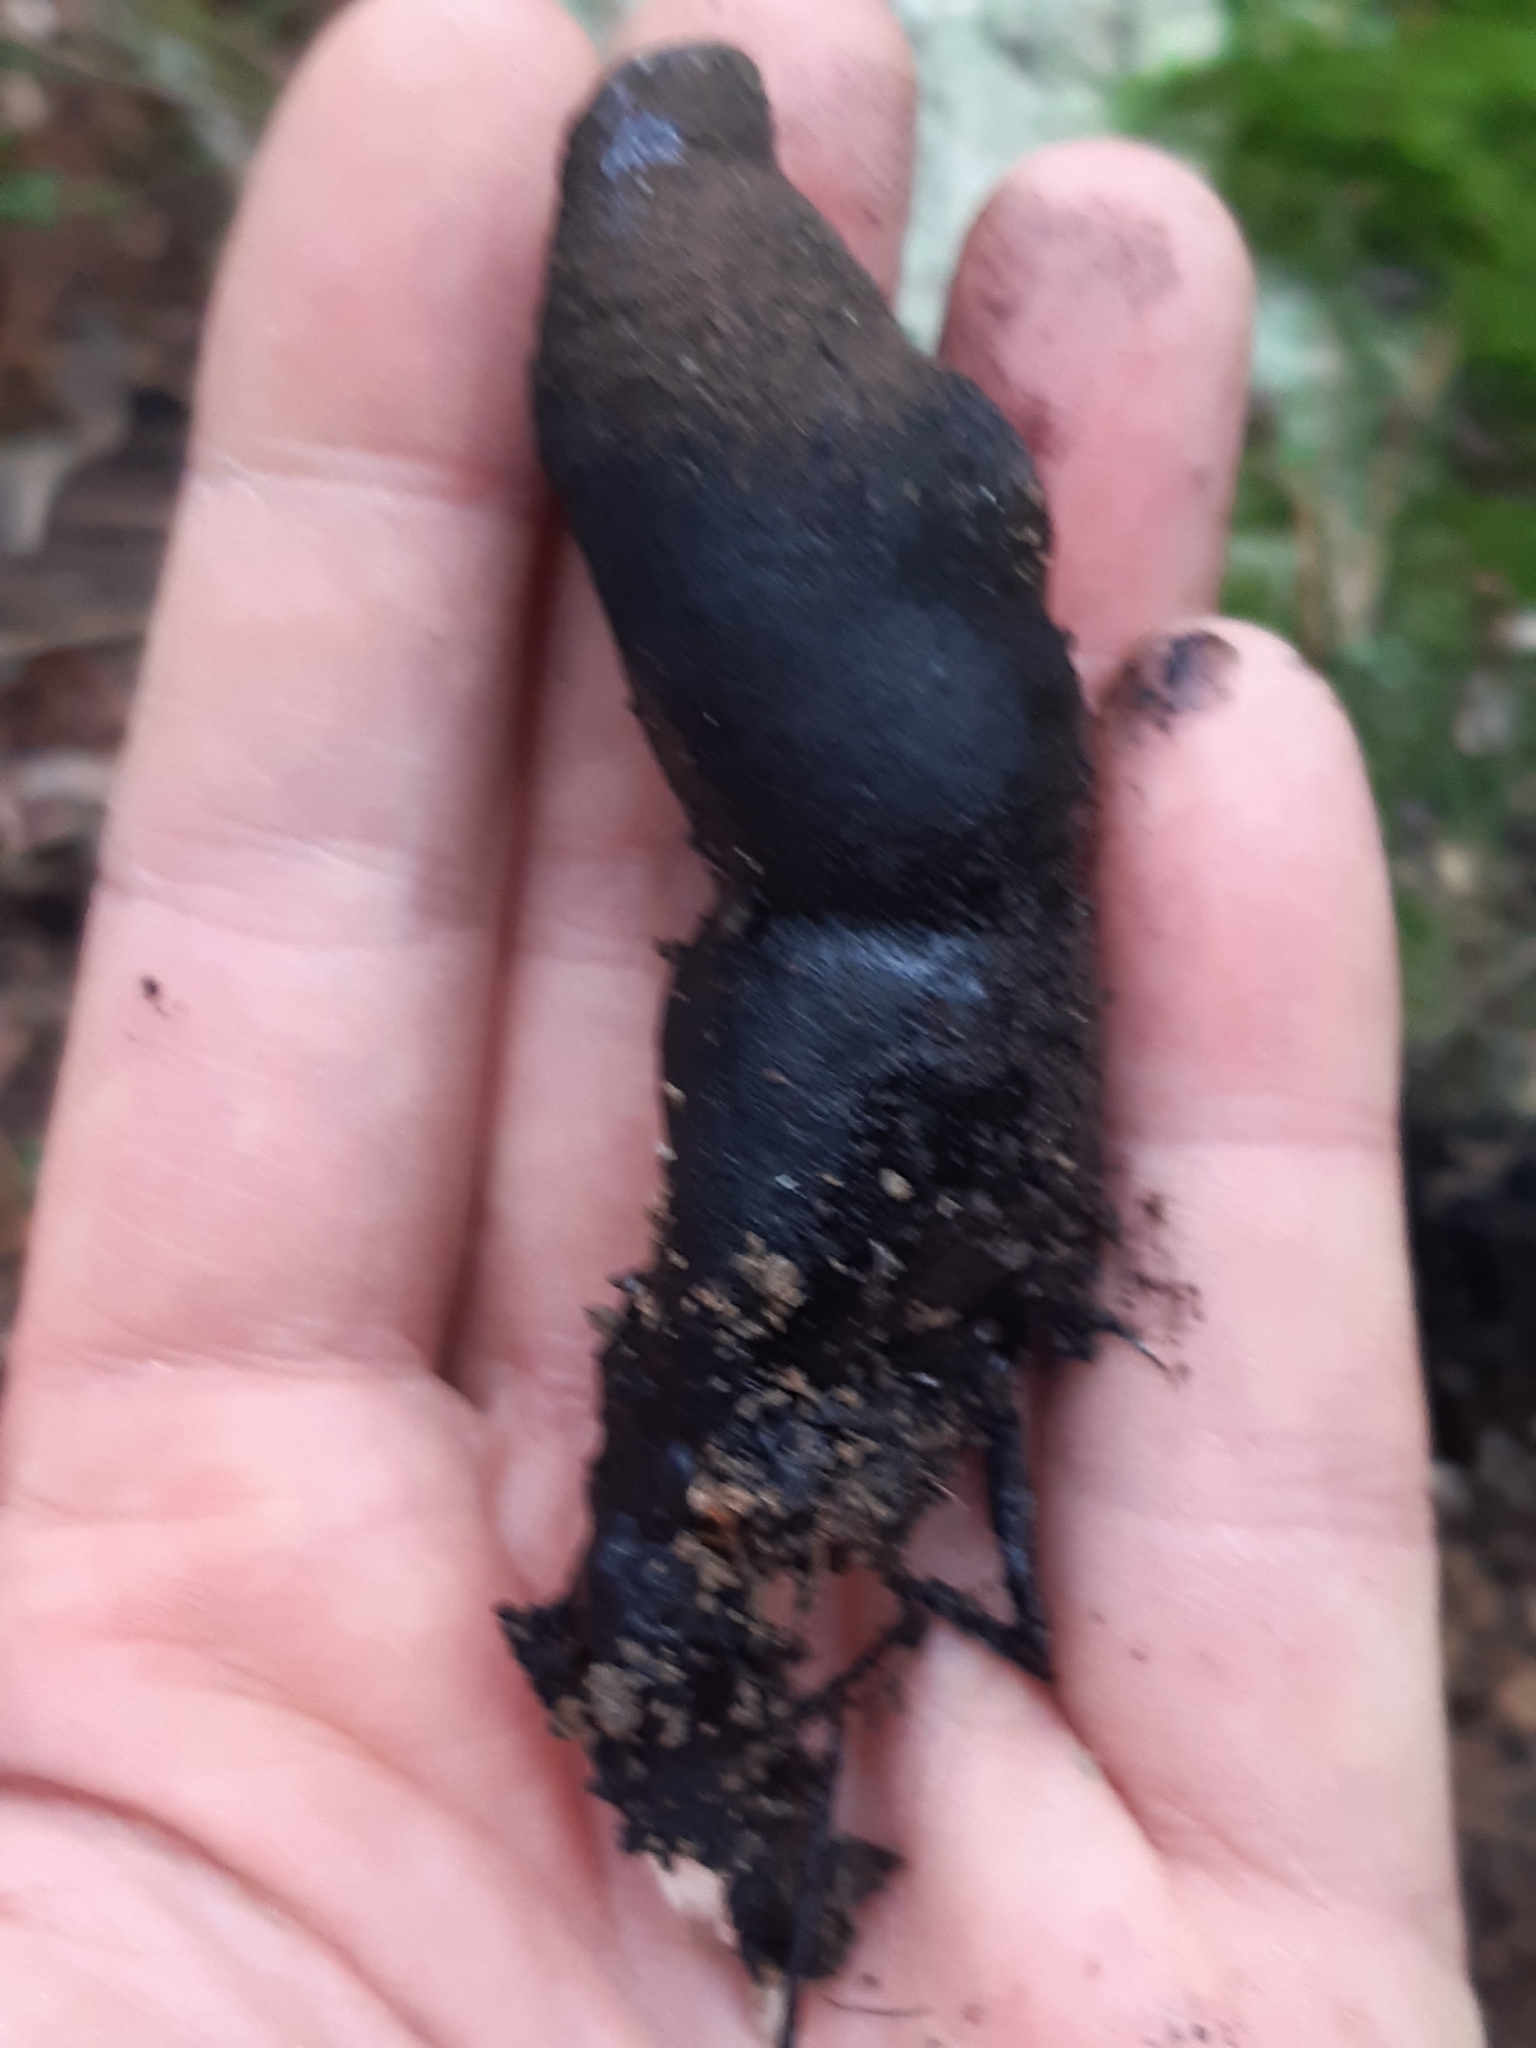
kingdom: Fungi
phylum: Ascomycota
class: Sordariomycetes
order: Xylariales
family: Xylariaceae
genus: Xylaria
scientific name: Xylaria polymorpha
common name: Dead man's fingers
